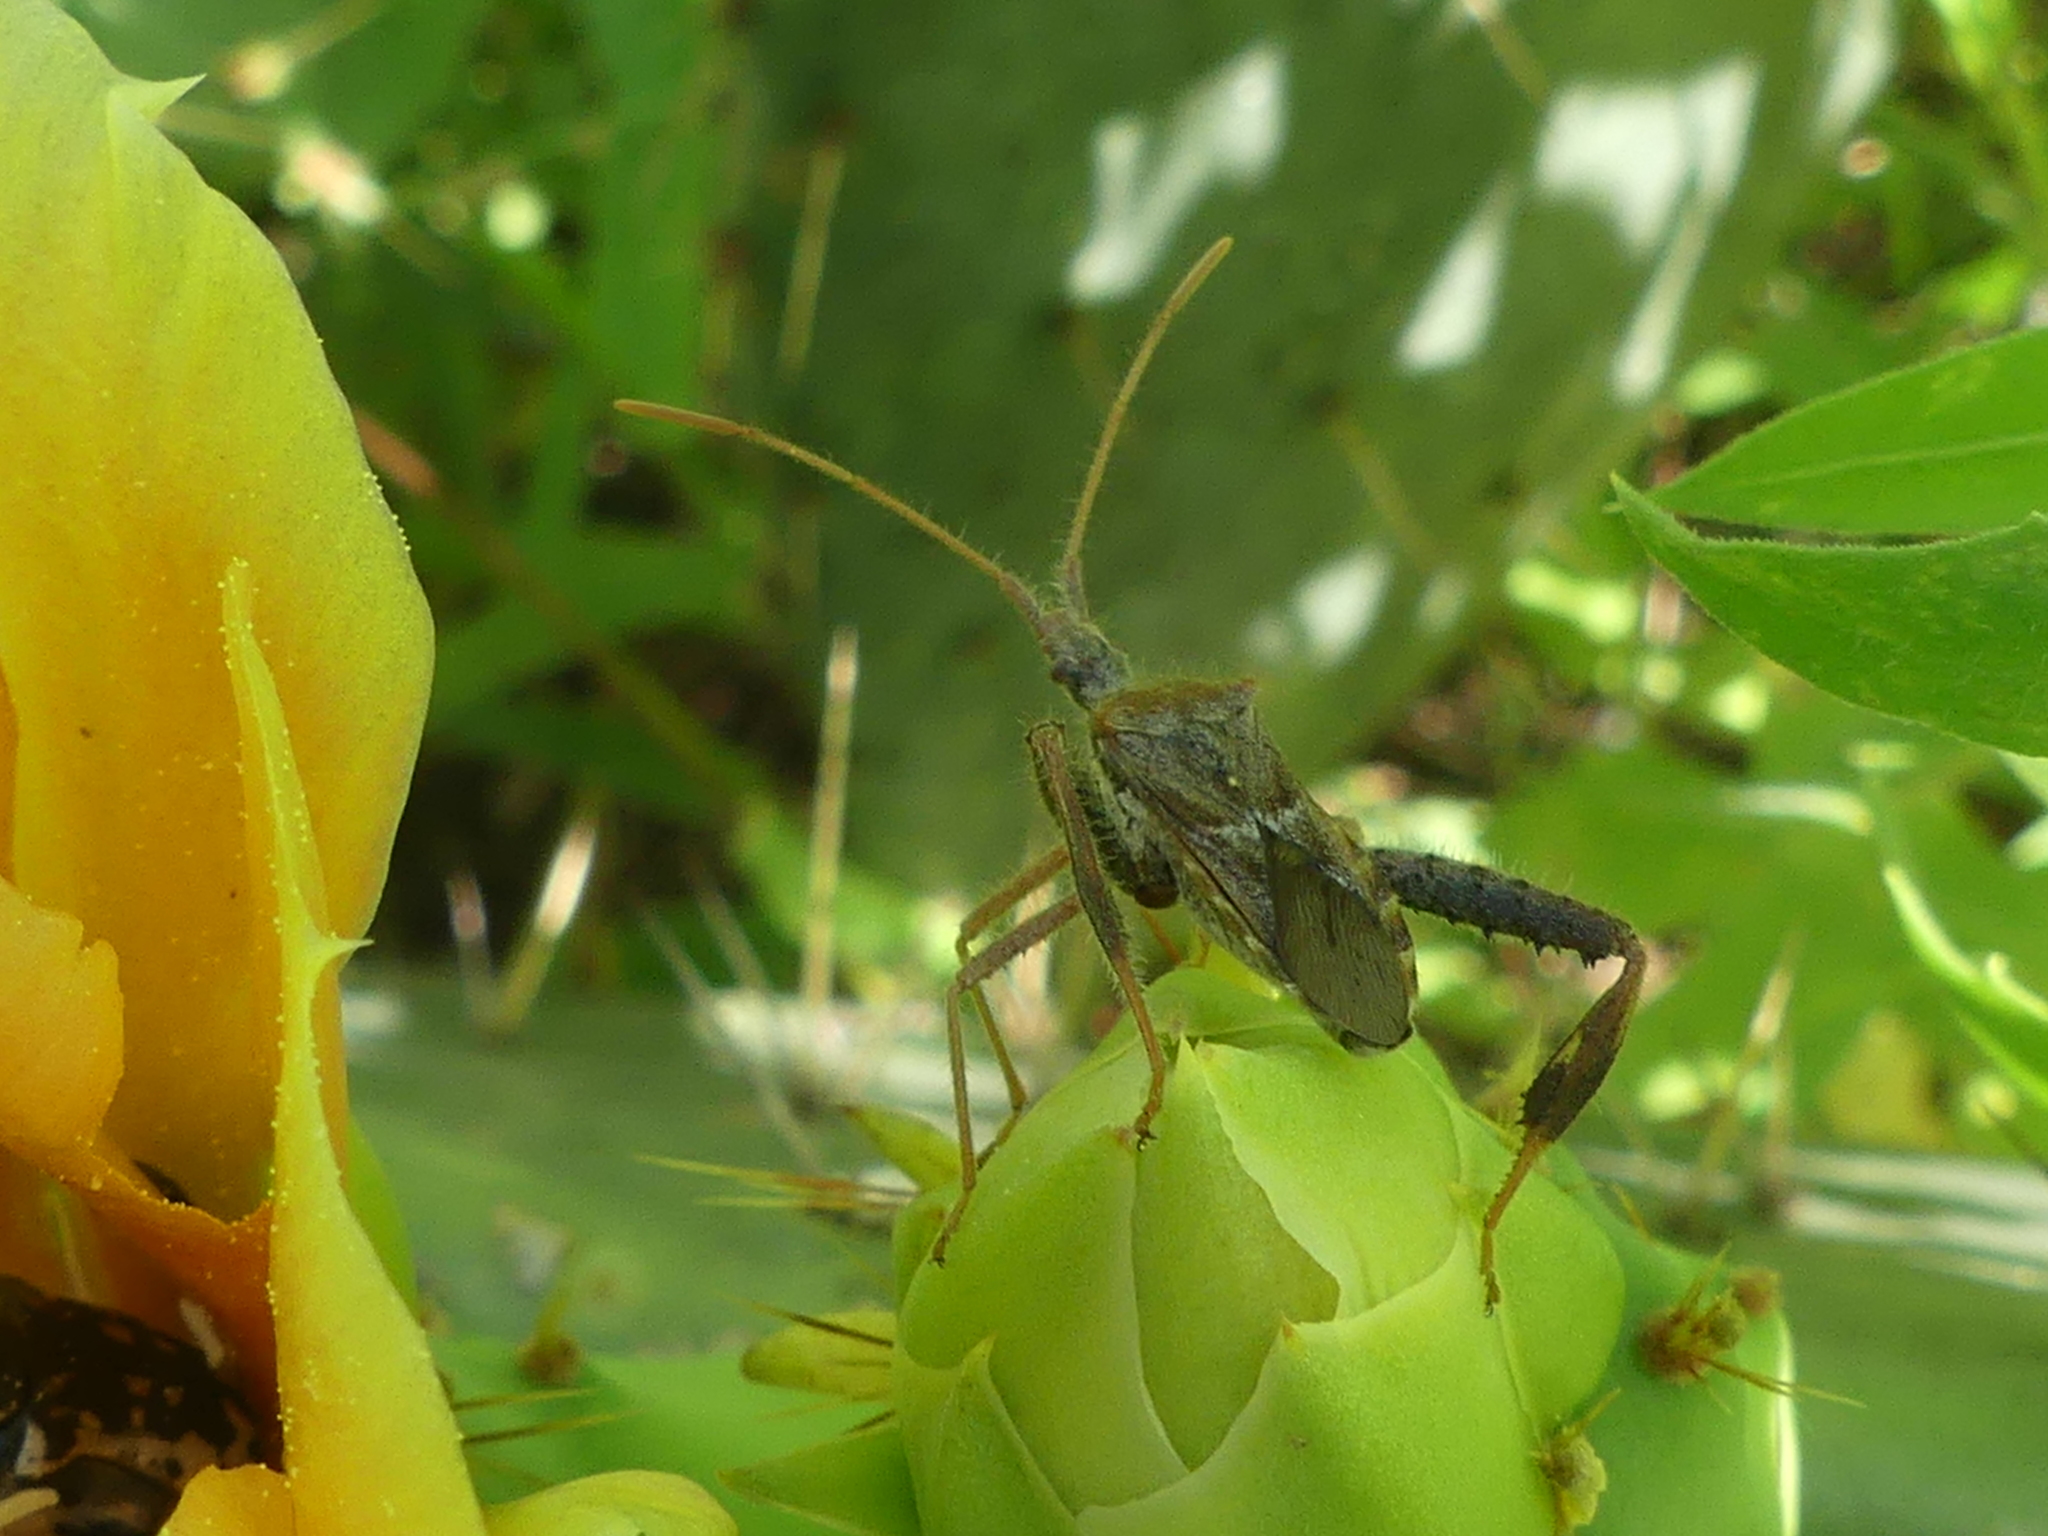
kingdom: Animalia
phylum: Arthropoda
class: Insecta
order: Hemiptera
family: Coreidae
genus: Narnia
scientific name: Narnia femorata
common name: Leaf-footed cactus bug
